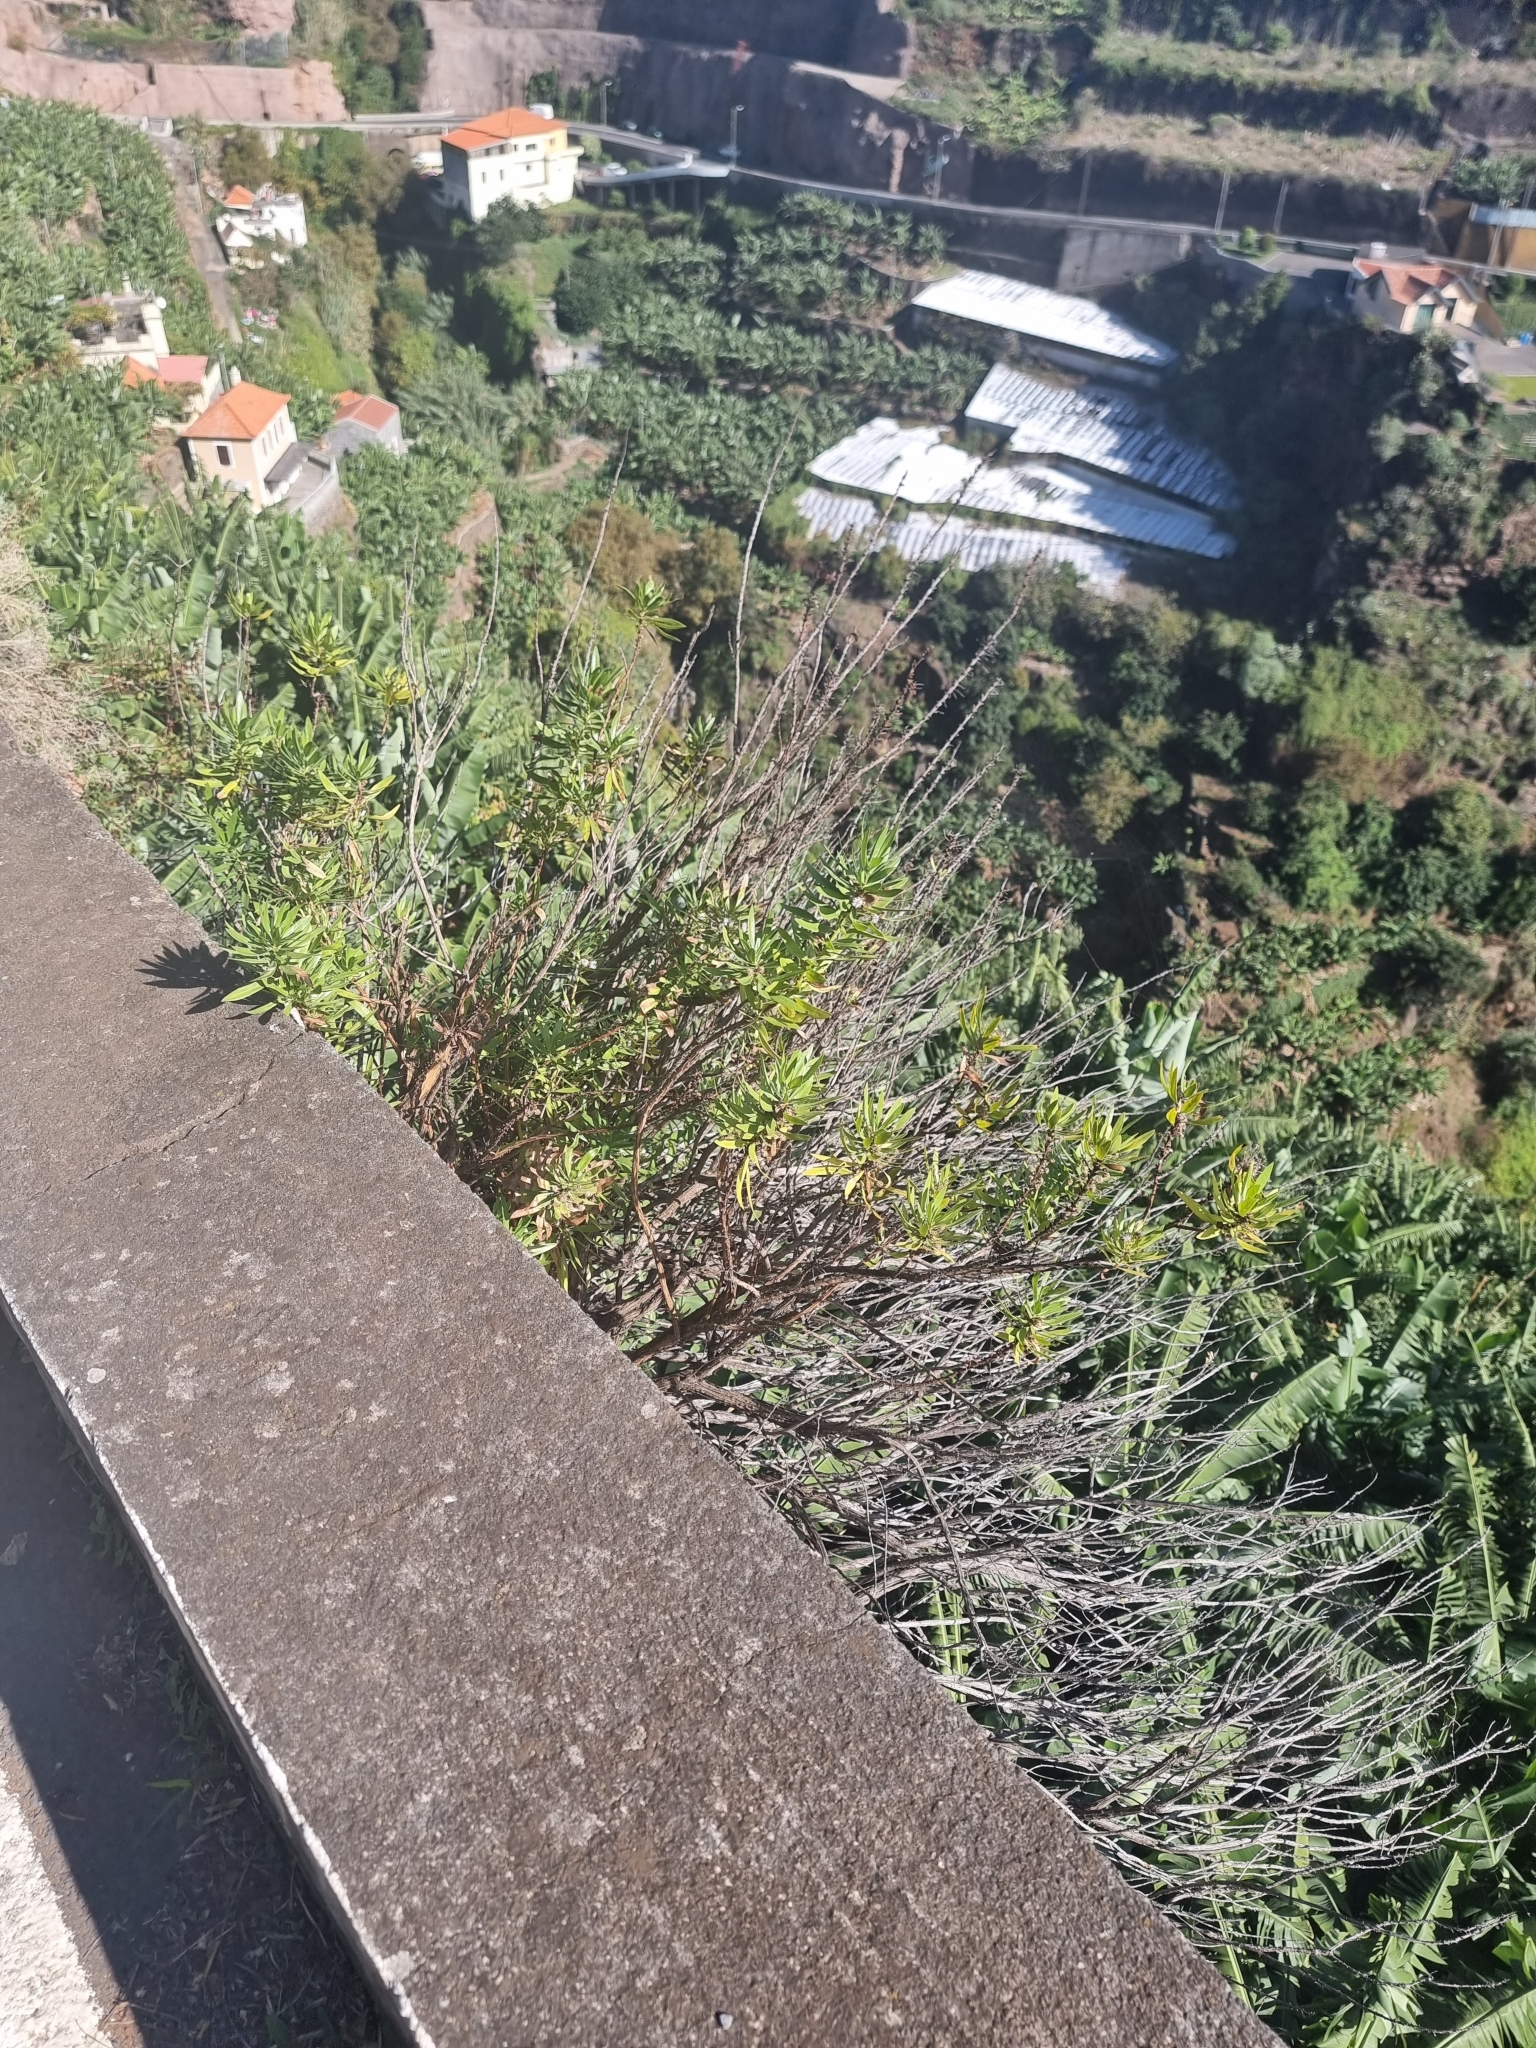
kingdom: Plantae
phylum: Tracheophyta
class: Magnoliopsida
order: Lamiales
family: Plantaginaceae
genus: Globularia
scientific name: Globularia salicina
